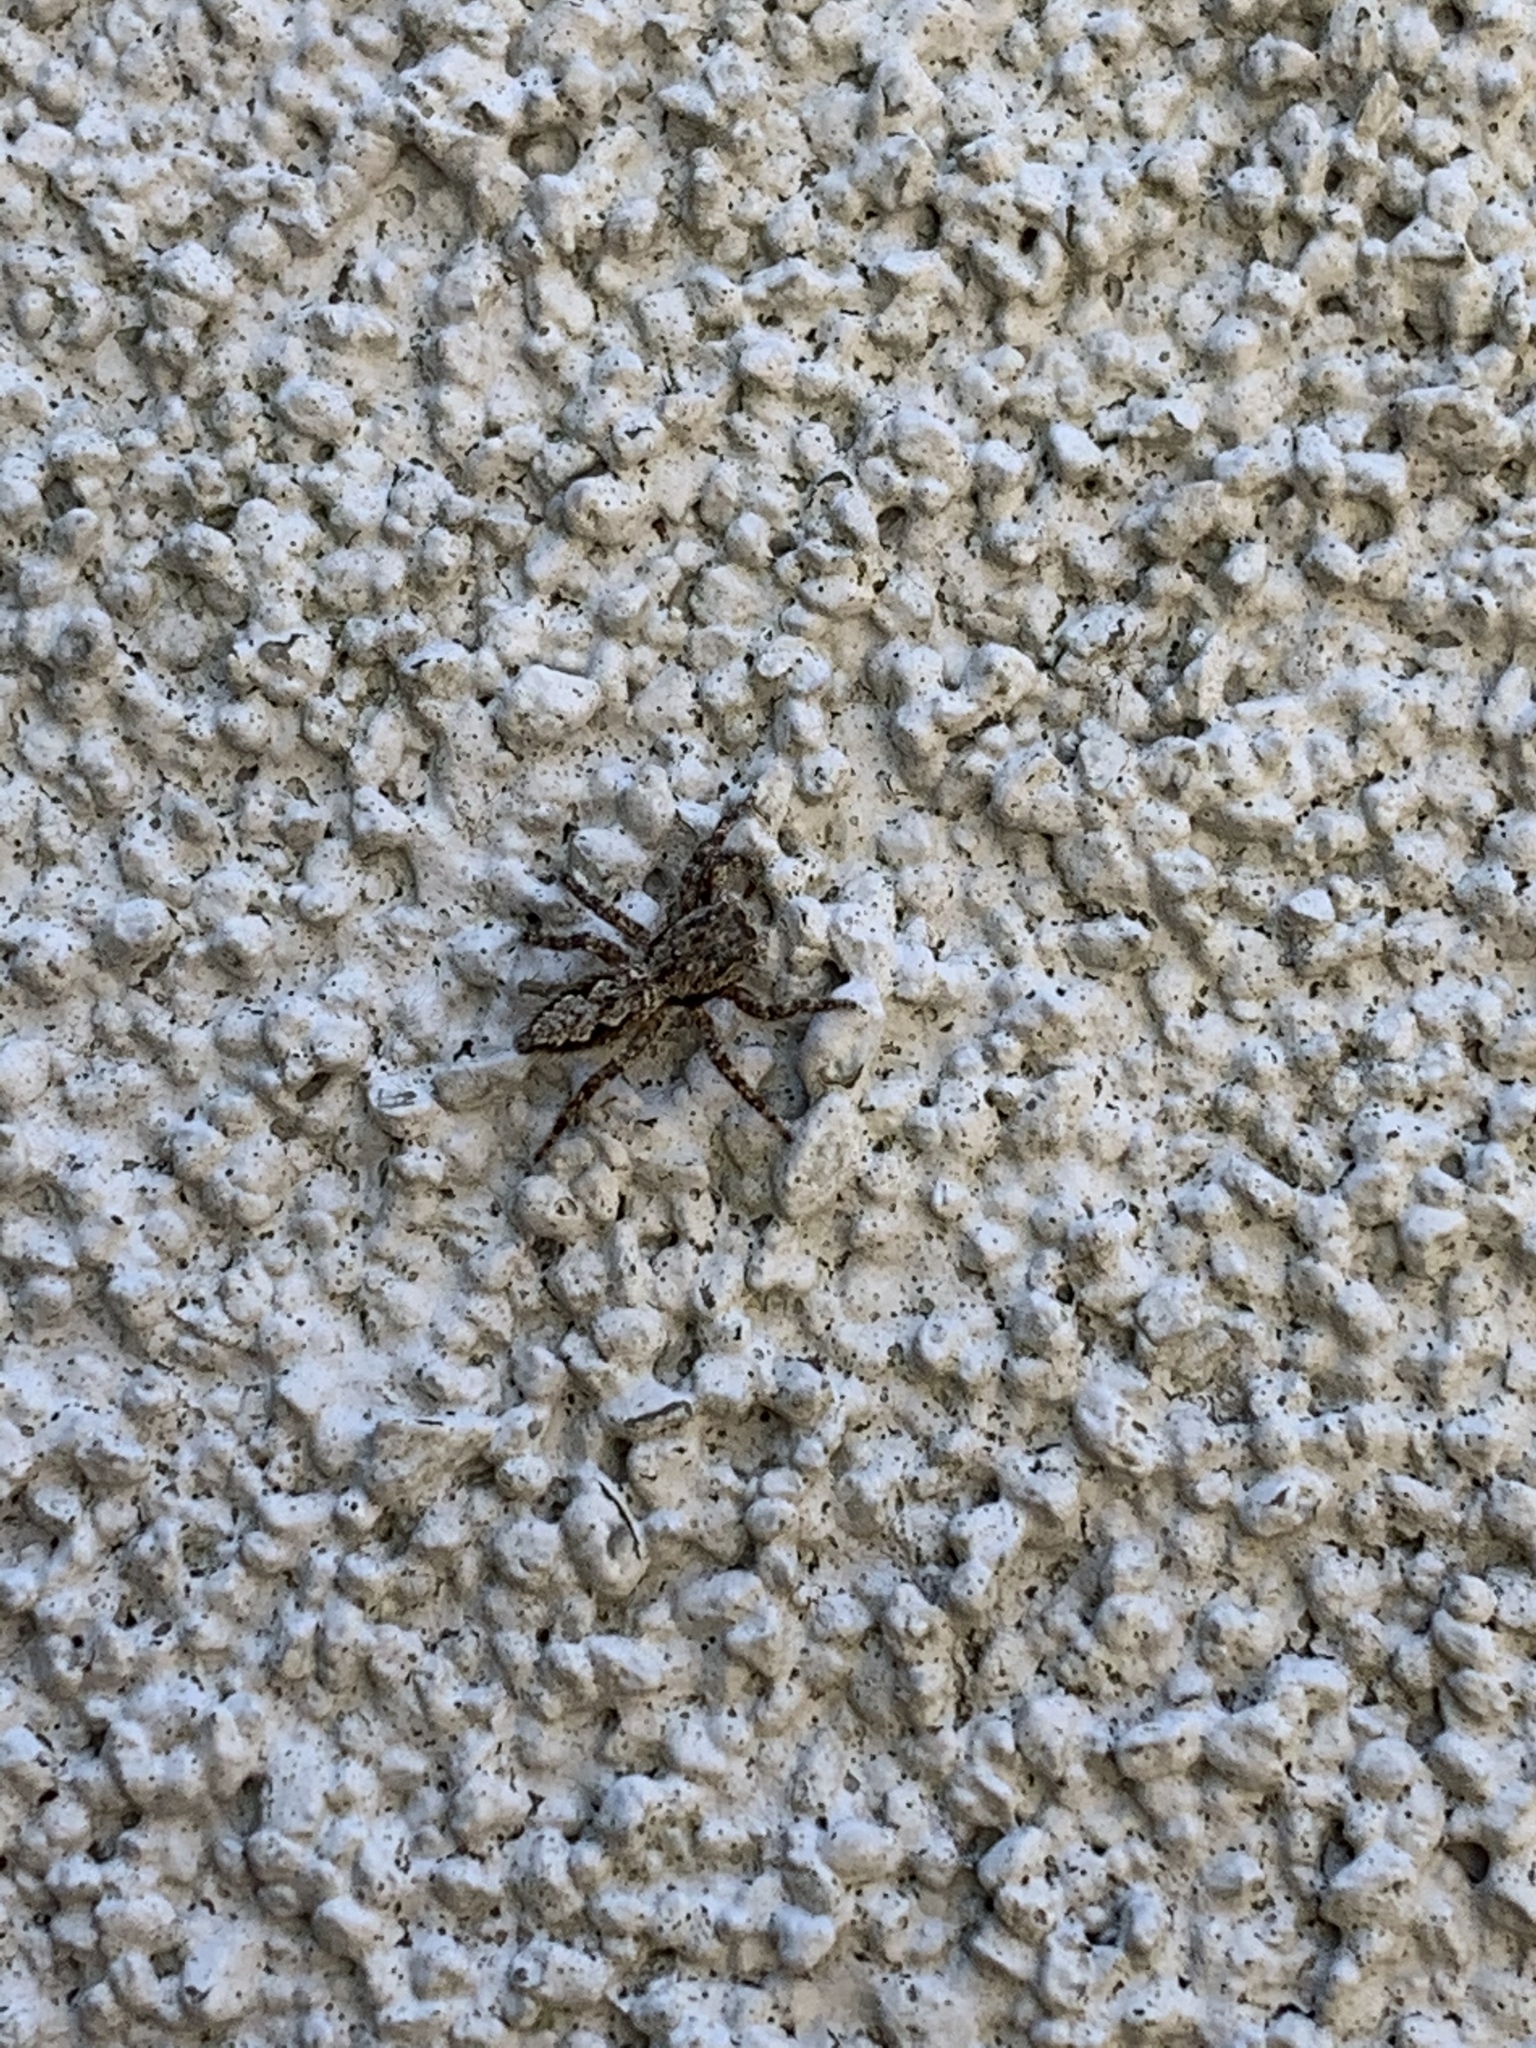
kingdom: Animalia
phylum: Arthropoda
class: Arachnida
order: Araneae
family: Salticidae
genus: Platycryptus
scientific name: Platycryptus undatus
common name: Tan jumping spider
